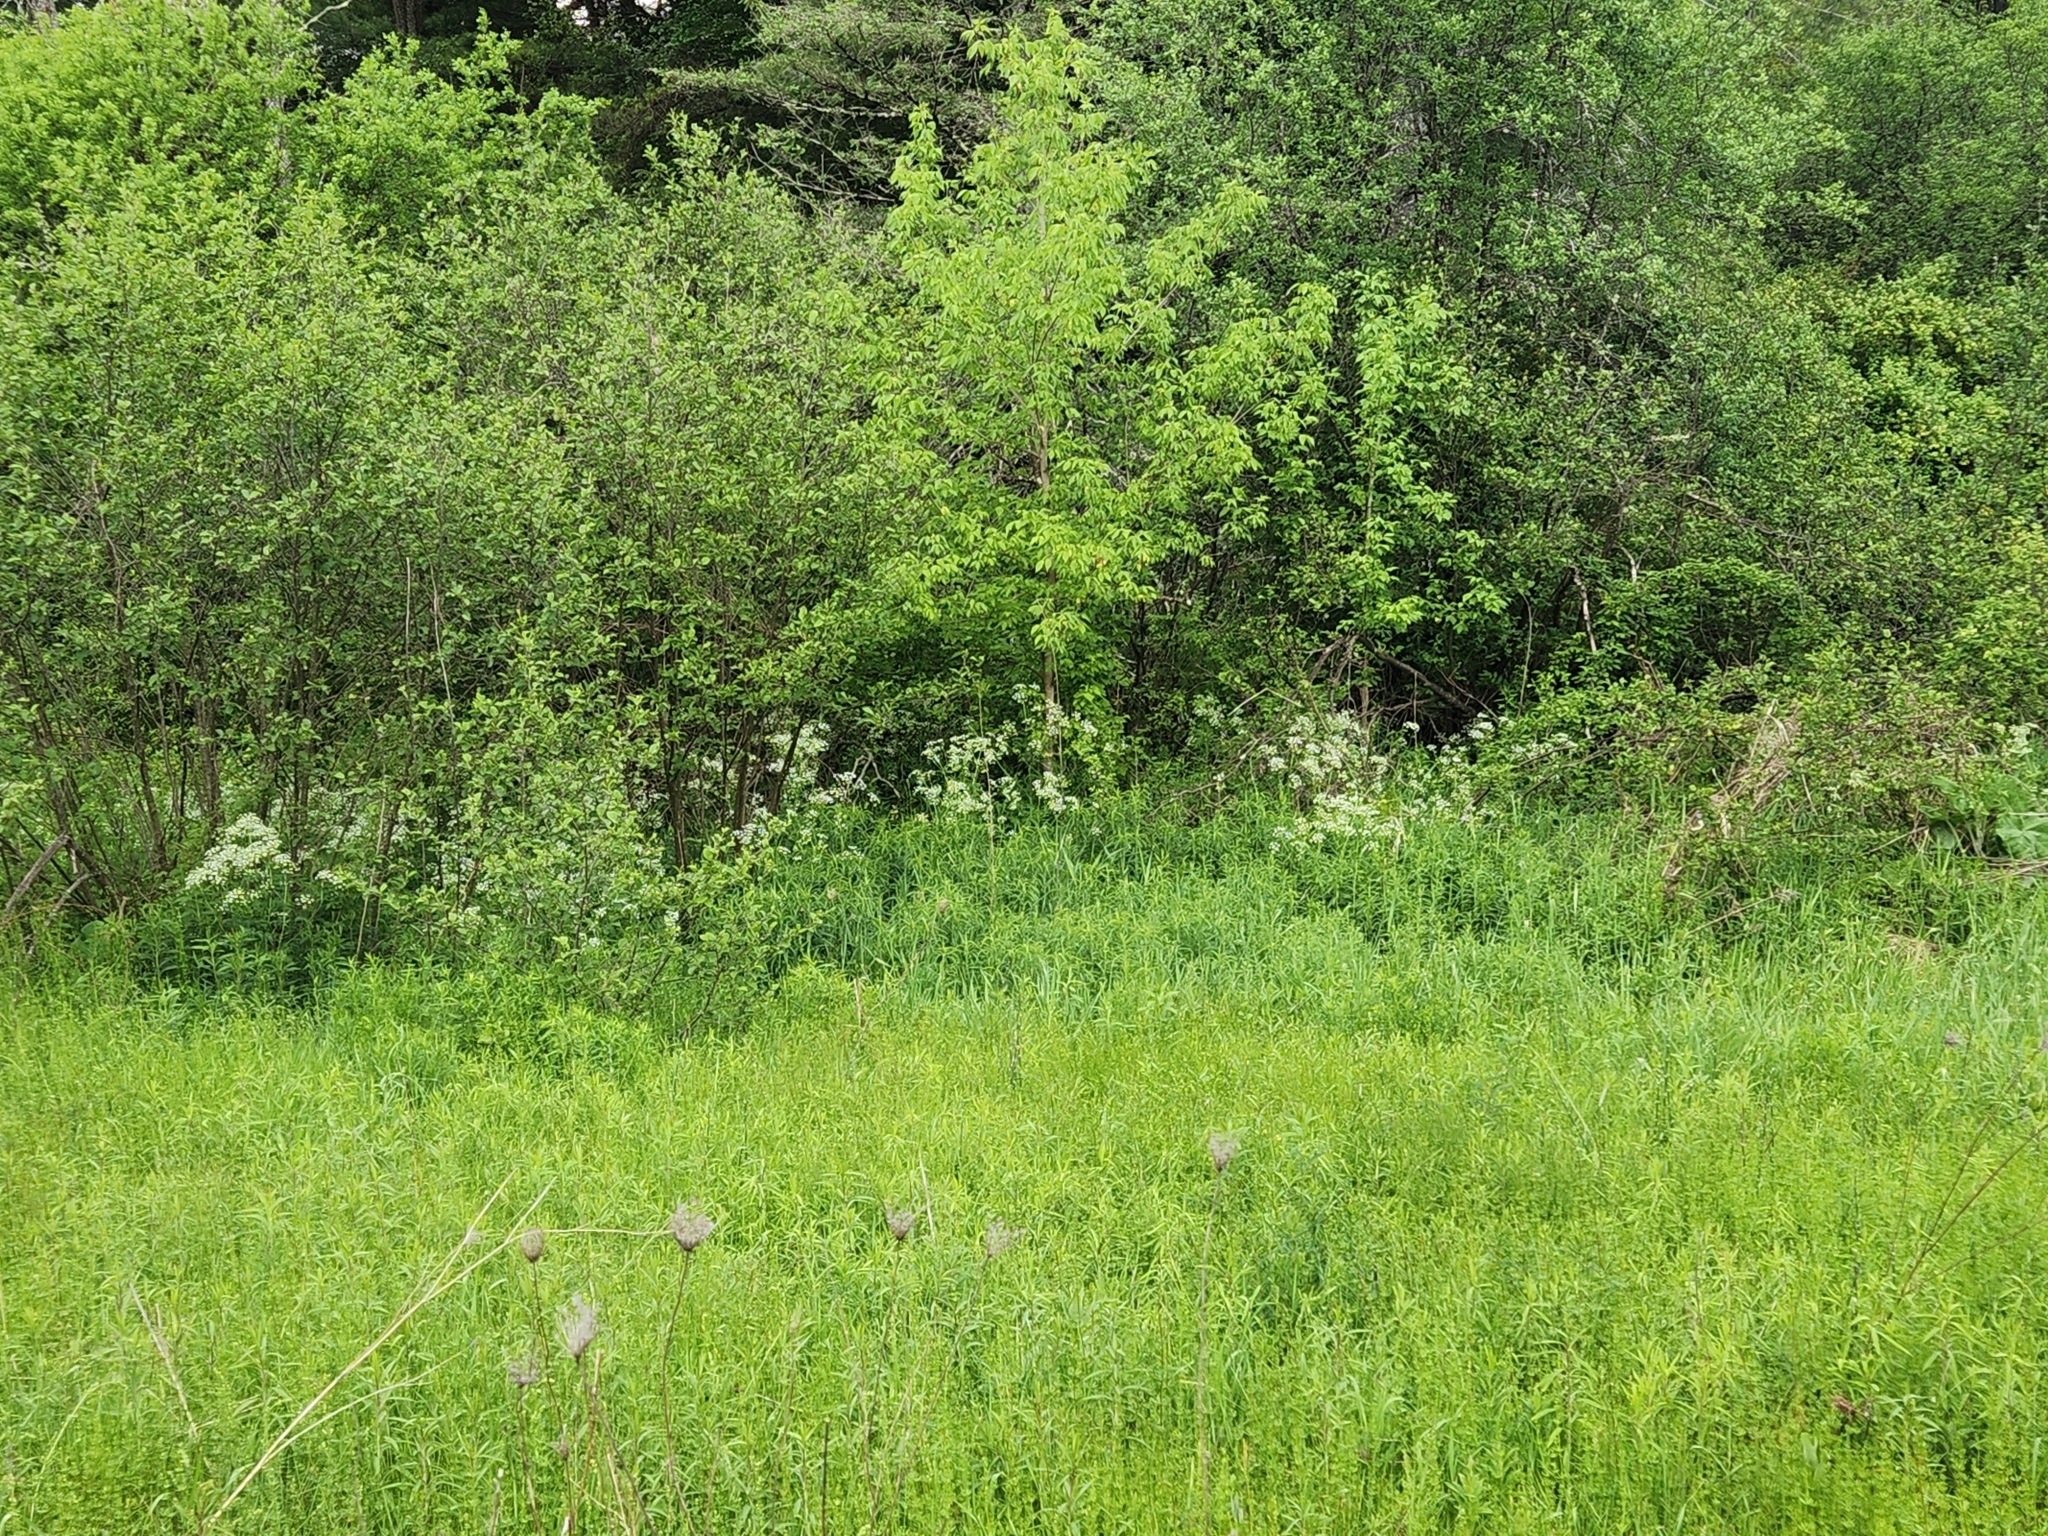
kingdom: Plantae
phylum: Tracheophyta
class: Magnoliopsida
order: Apiales
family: Apiaceae
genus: Anthriscus
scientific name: Anthriscus sylvestris
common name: Cow parsley
